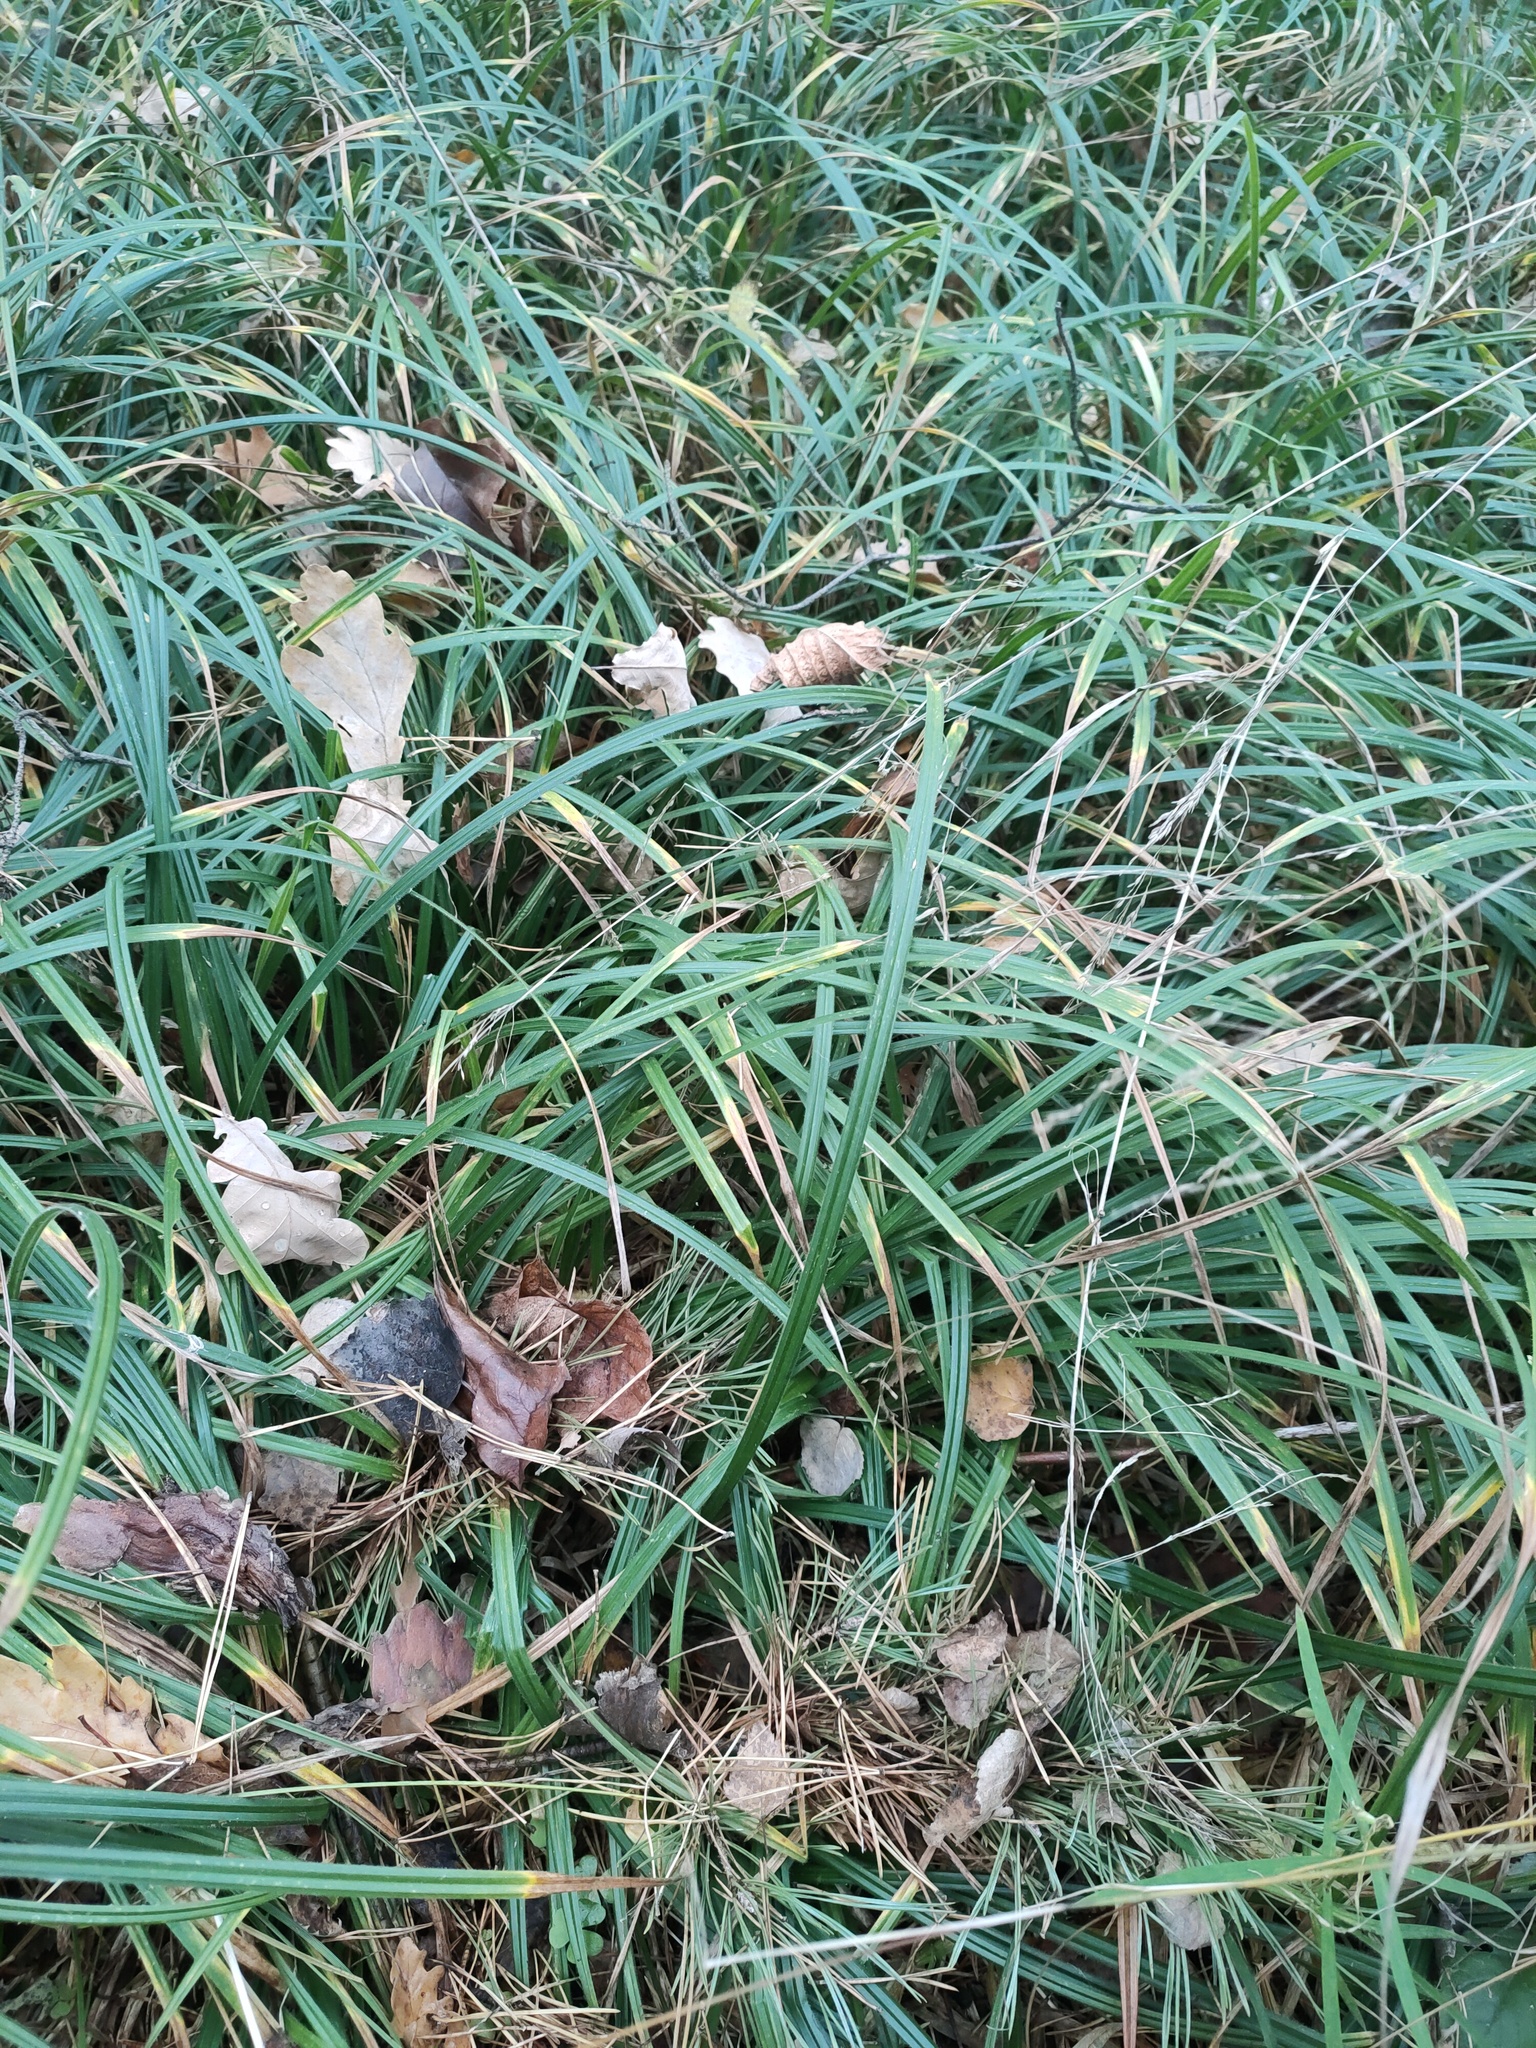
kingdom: Plantae
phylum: Tracheophyta
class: Liliopsida
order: Poales
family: Cyperaceae
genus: Carex
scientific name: Carex pilosa
